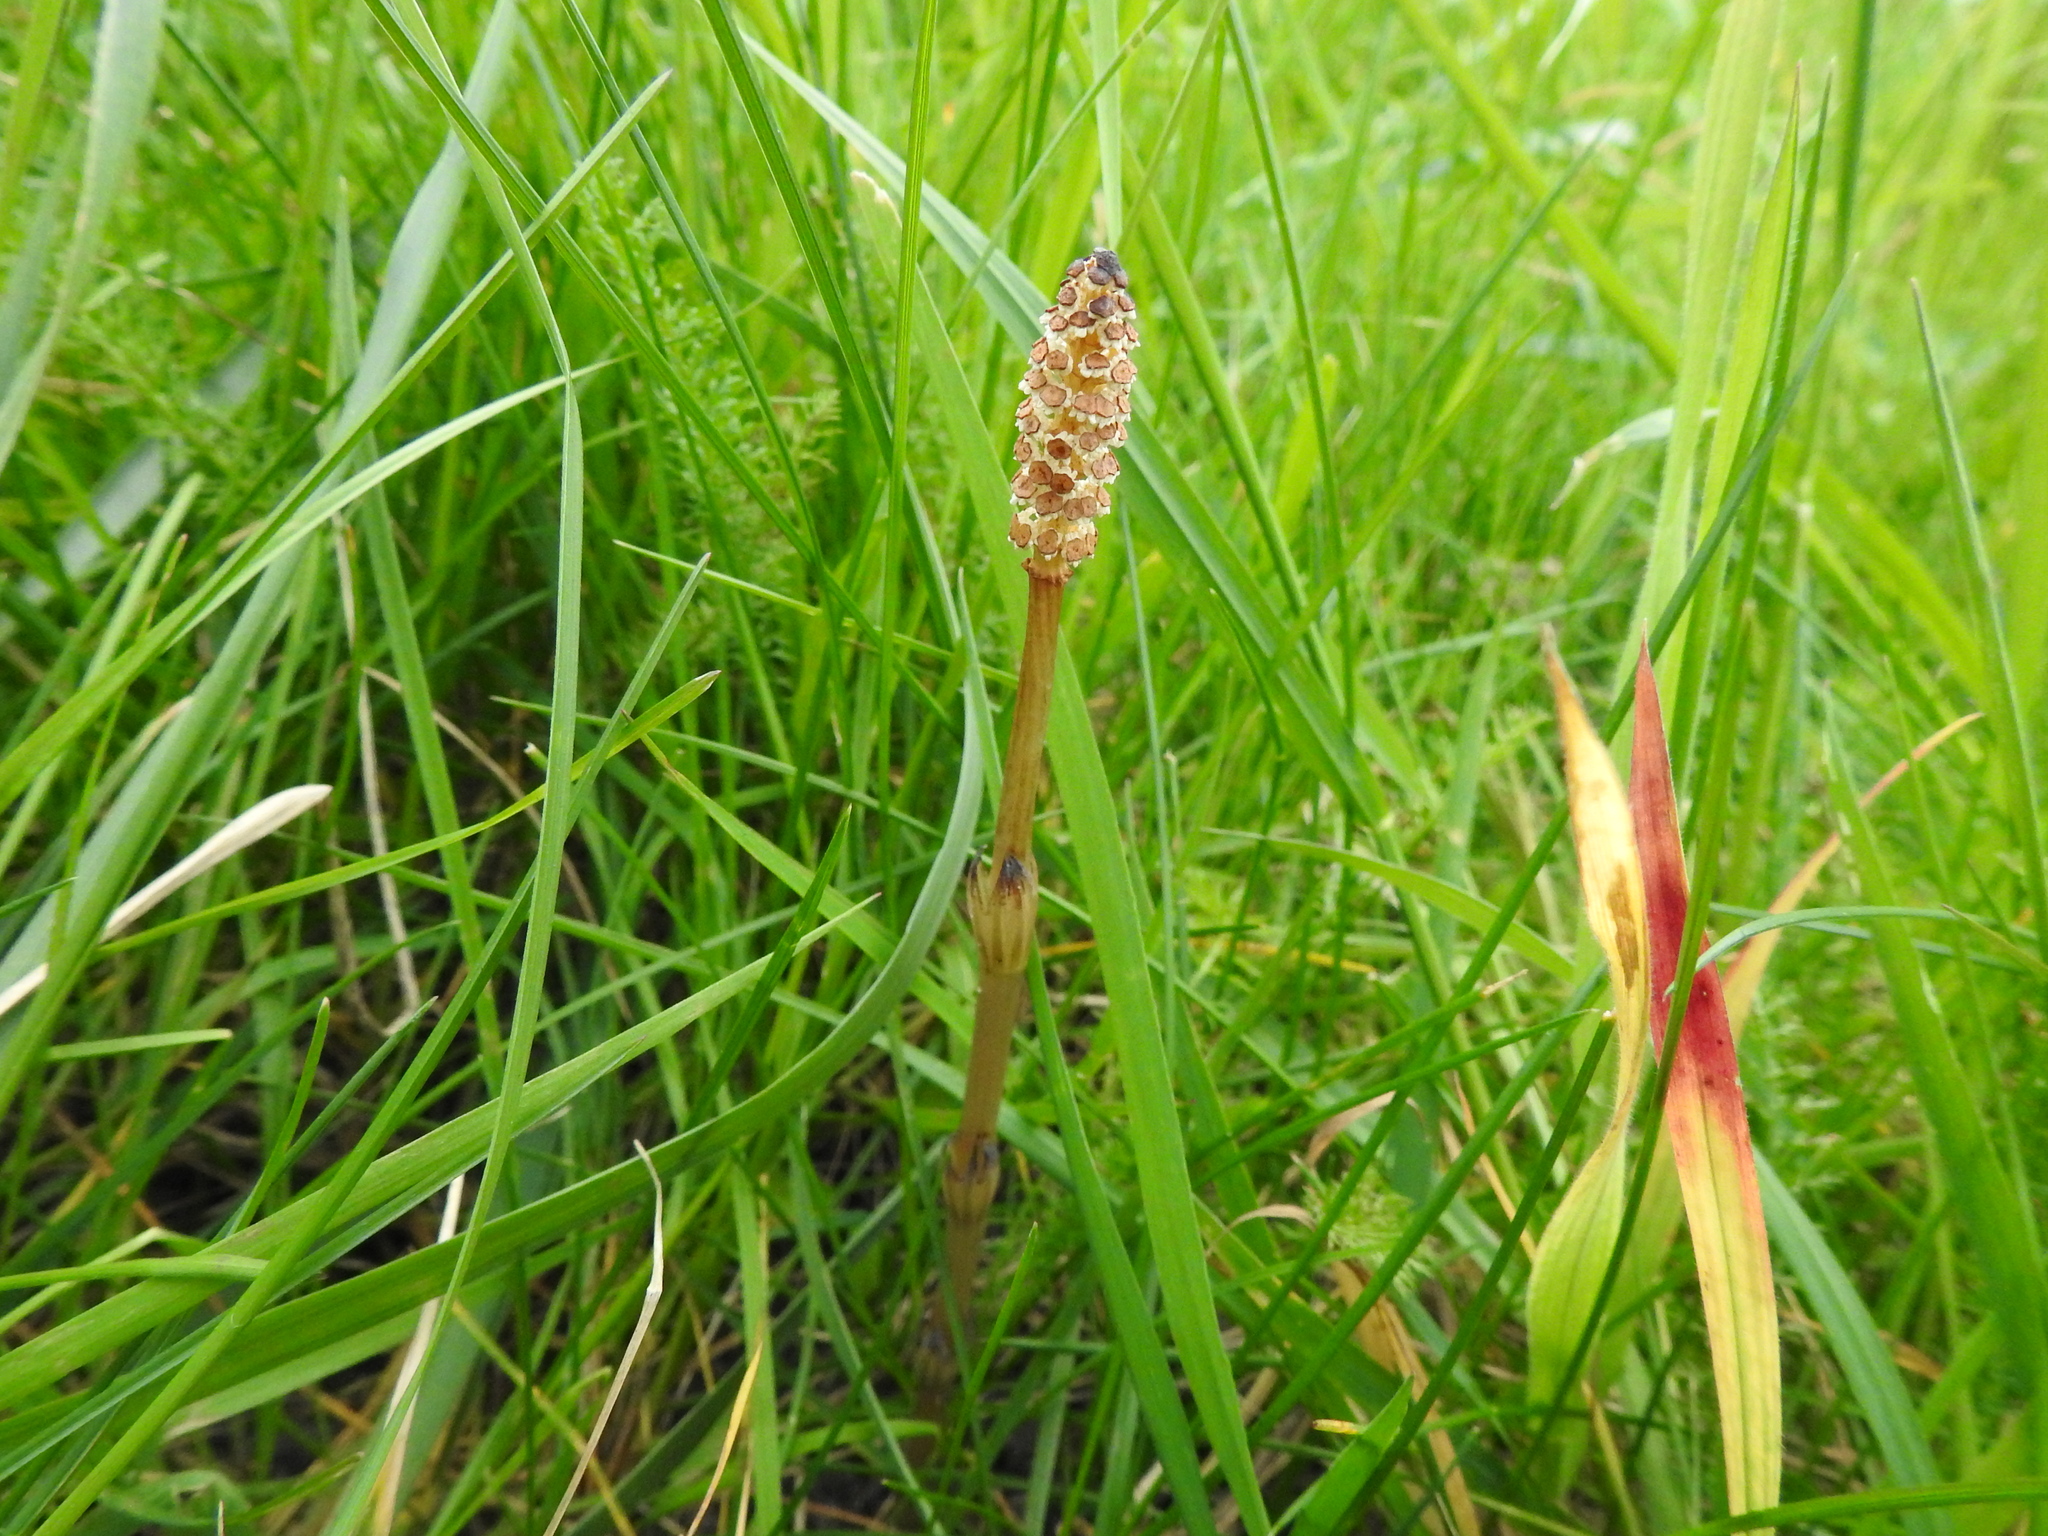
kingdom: Plantae
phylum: Tracheophyta
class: Polypodiopsida
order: Equisetales
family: Equisetaceae
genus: Equisetum
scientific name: Equisetum arvense
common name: Field horsetail
